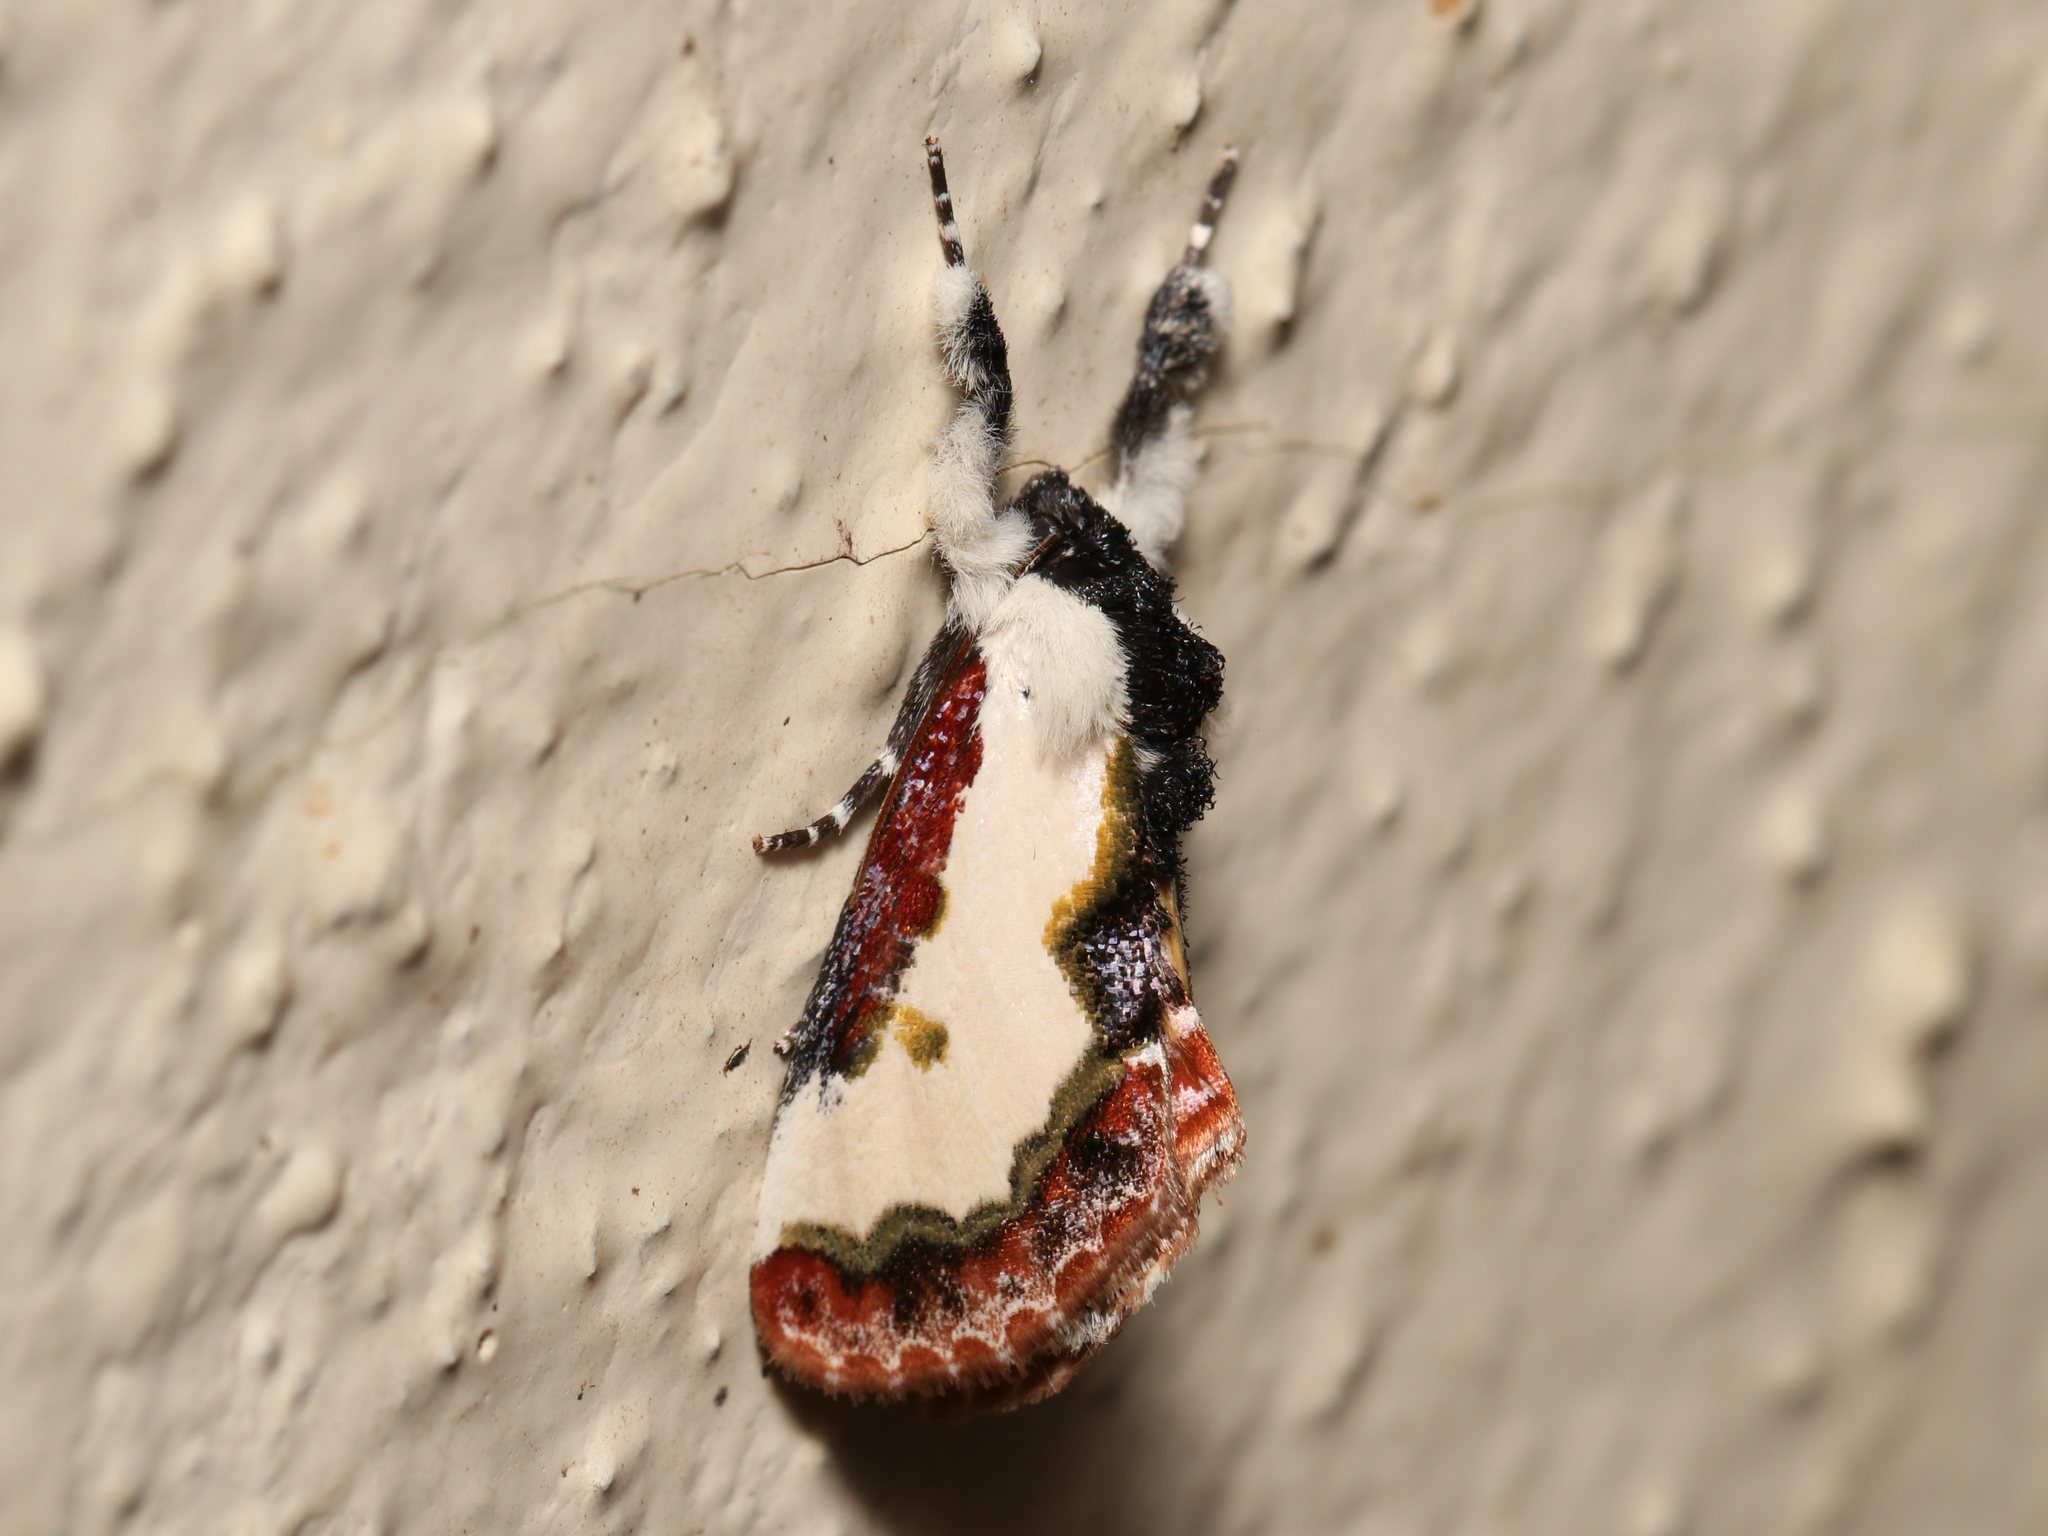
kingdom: Animalia
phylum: Arthropoda
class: Insecta
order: Lepidoptera
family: Noctuidae
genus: Eudryas
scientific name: Eudryas unio
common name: Pearly wood-nymph
